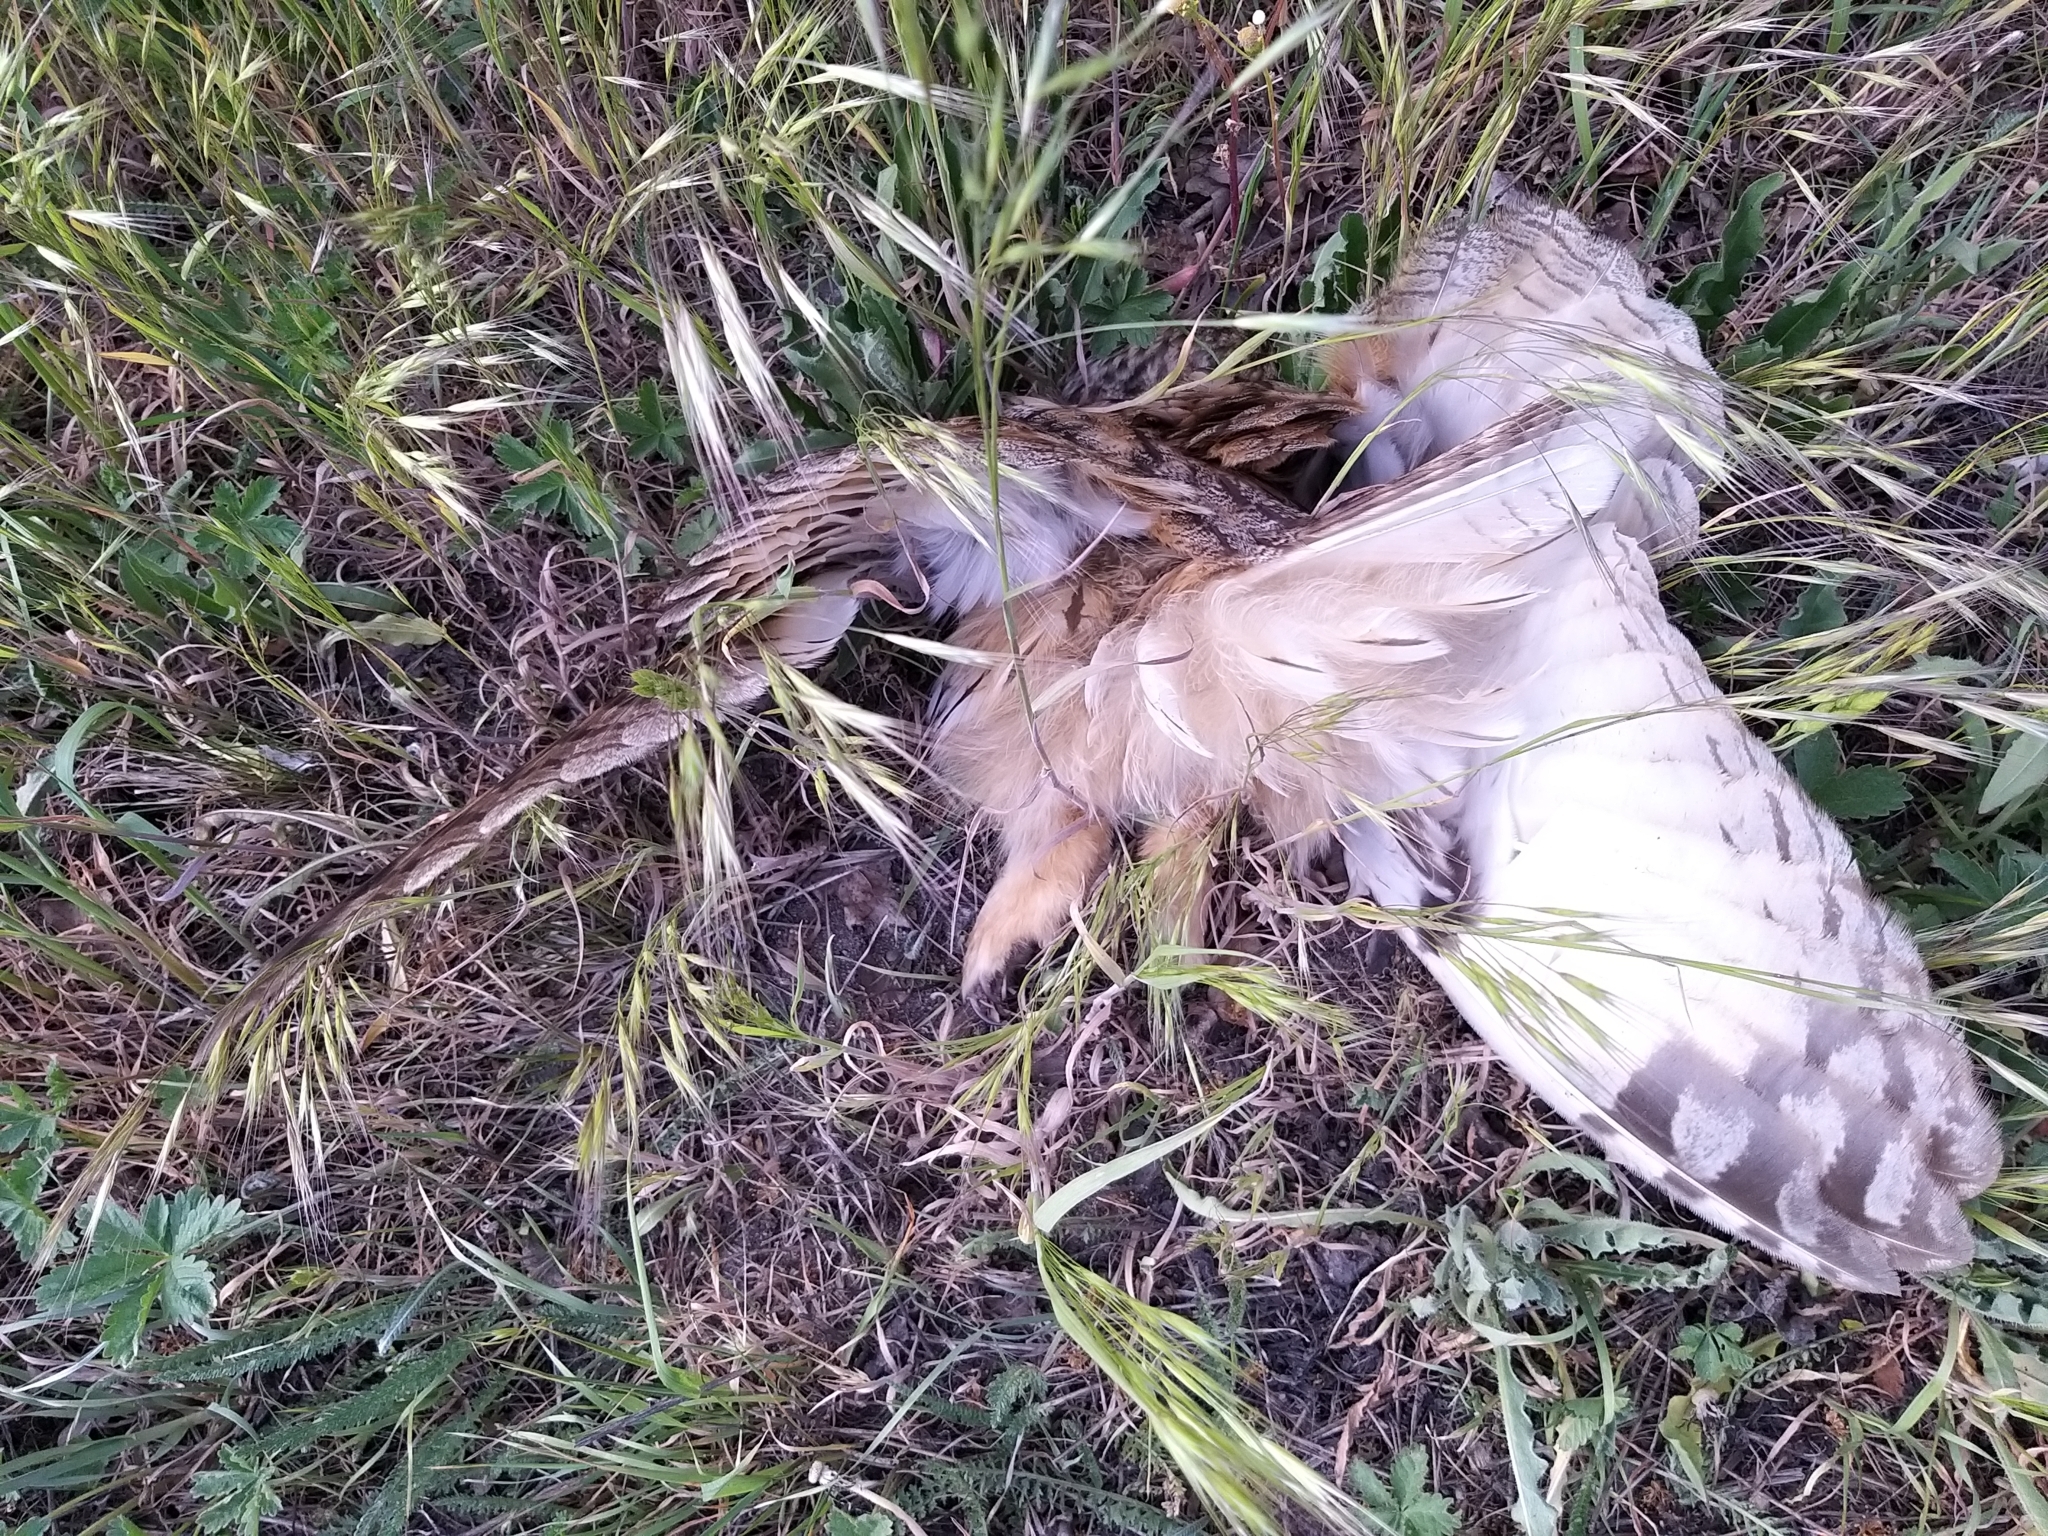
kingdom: Animalia
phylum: Chordata
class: Aves
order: Strigiformes
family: Strigidae
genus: Asio
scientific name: Asio otus
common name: Long-eared owl
